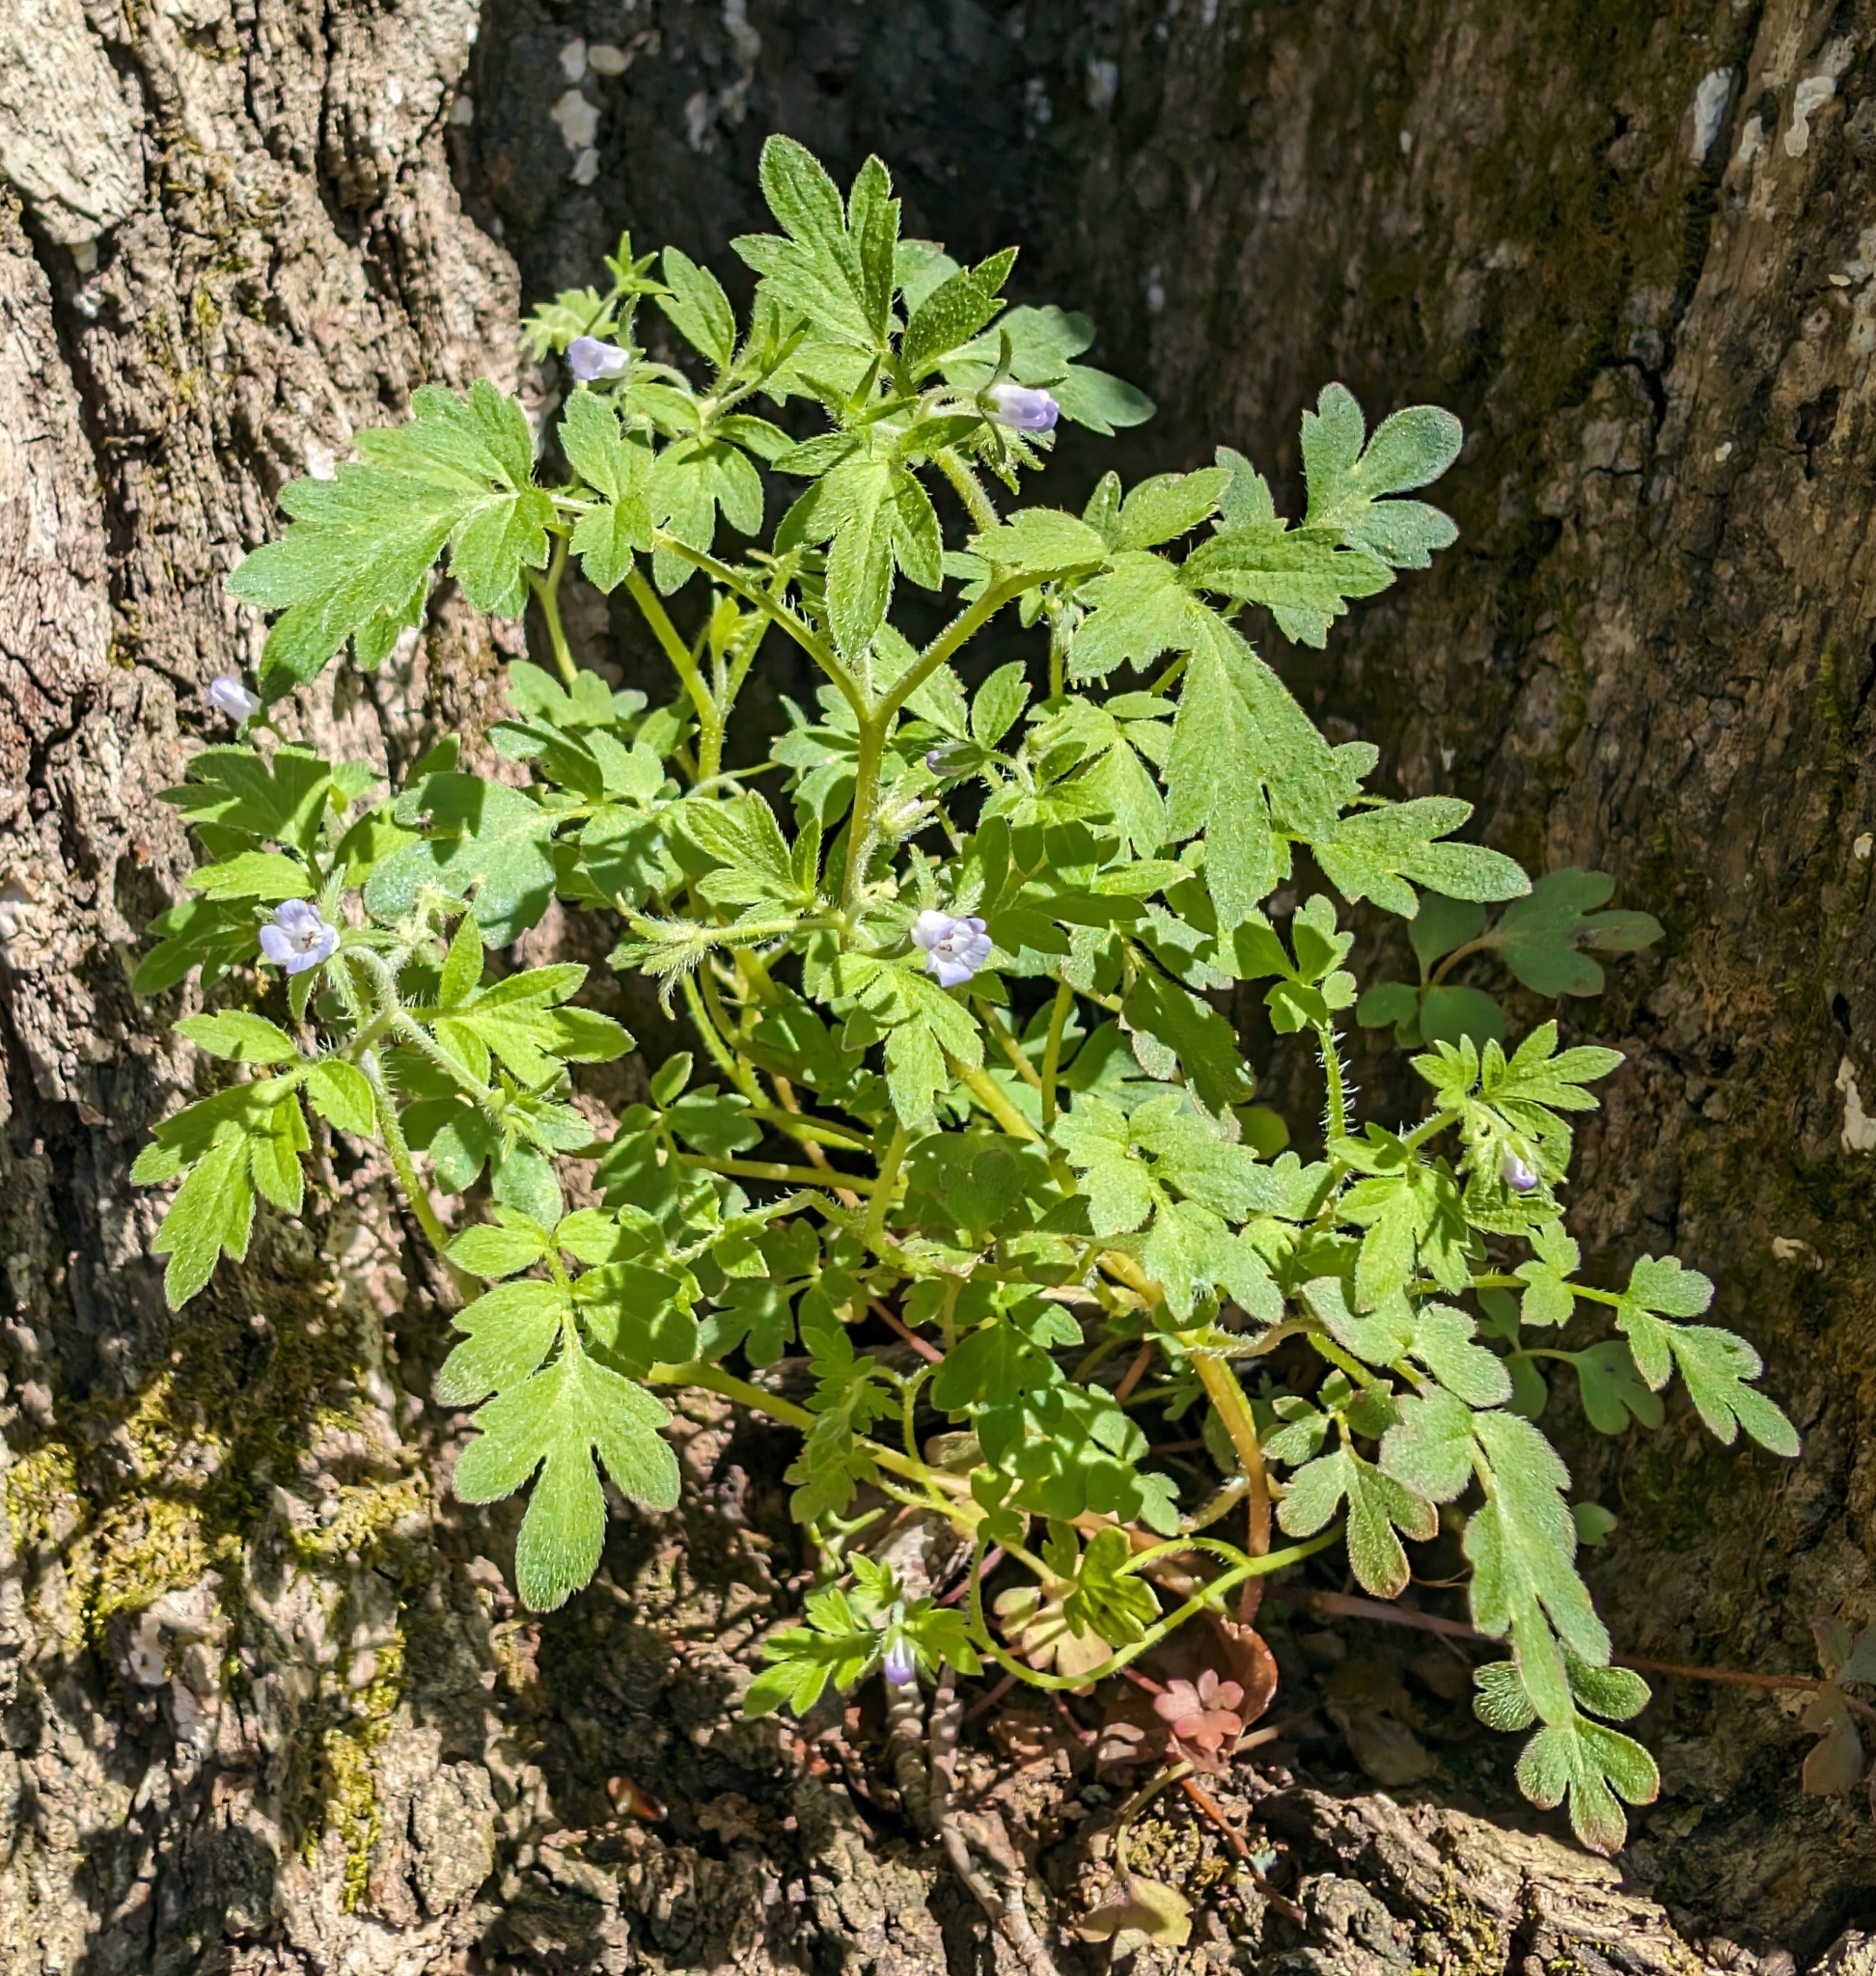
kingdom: Plantae
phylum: Tracheophyta
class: Magnoliopsida
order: Boraginales
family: Hydrophyllaceae
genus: Phacelia
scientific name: Phacelia covillei
